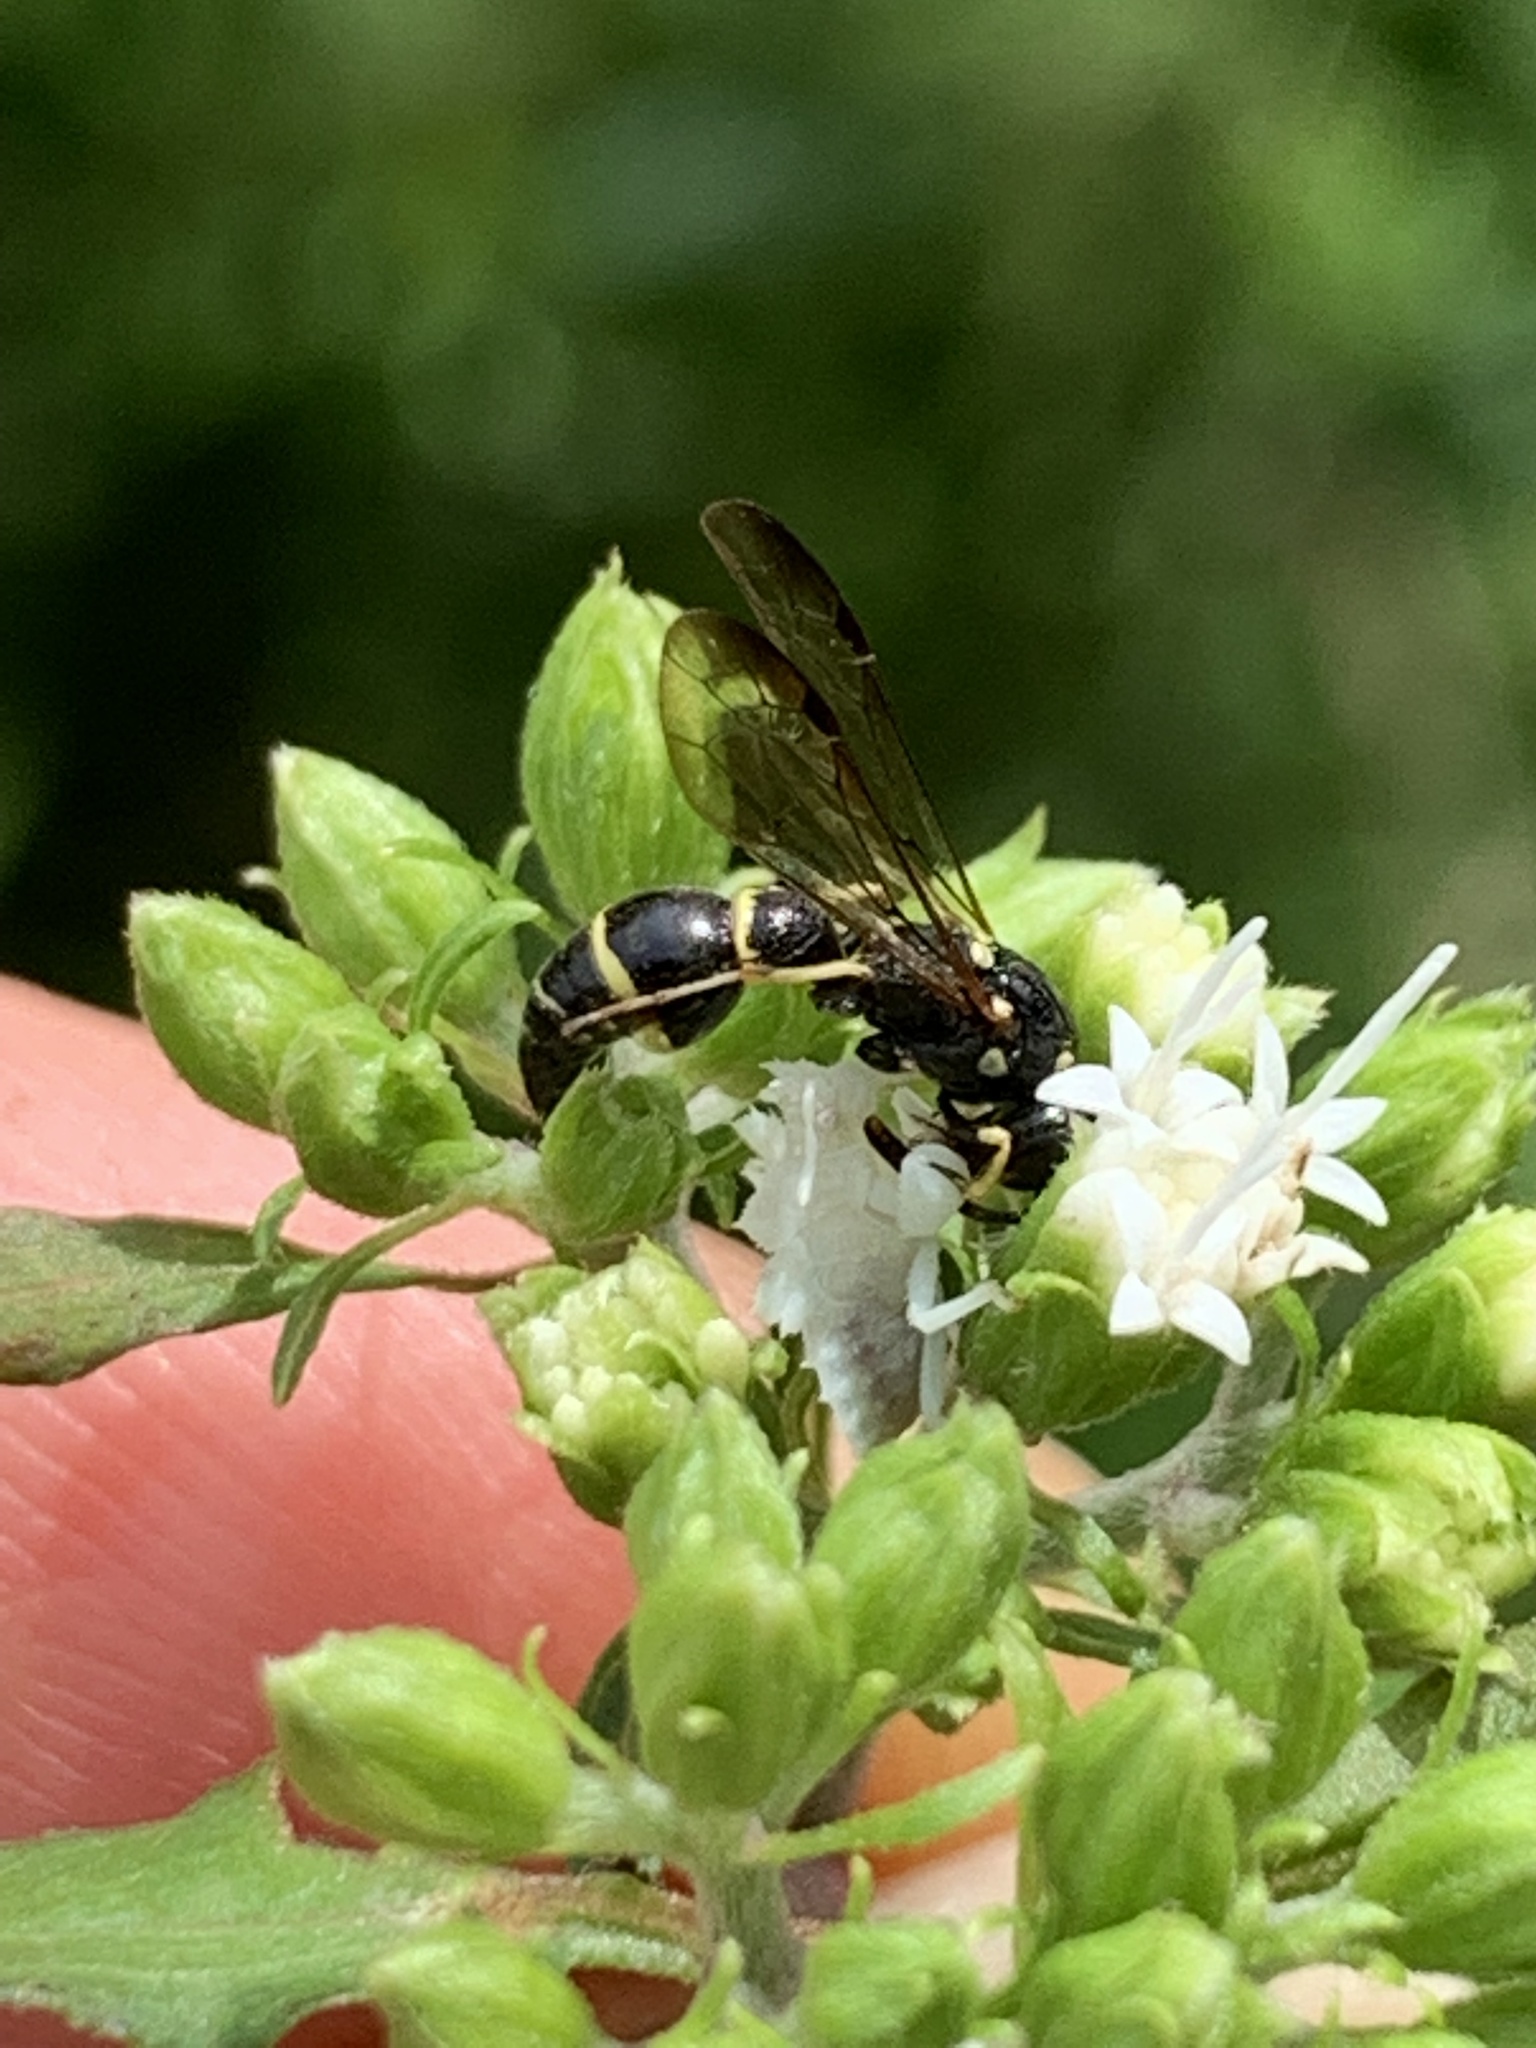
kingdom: Animalia
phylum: Arthropoda
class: Insecta
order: Hymenoptera
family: Eumenidae
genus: Symmorphus
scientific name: Symmorphus
